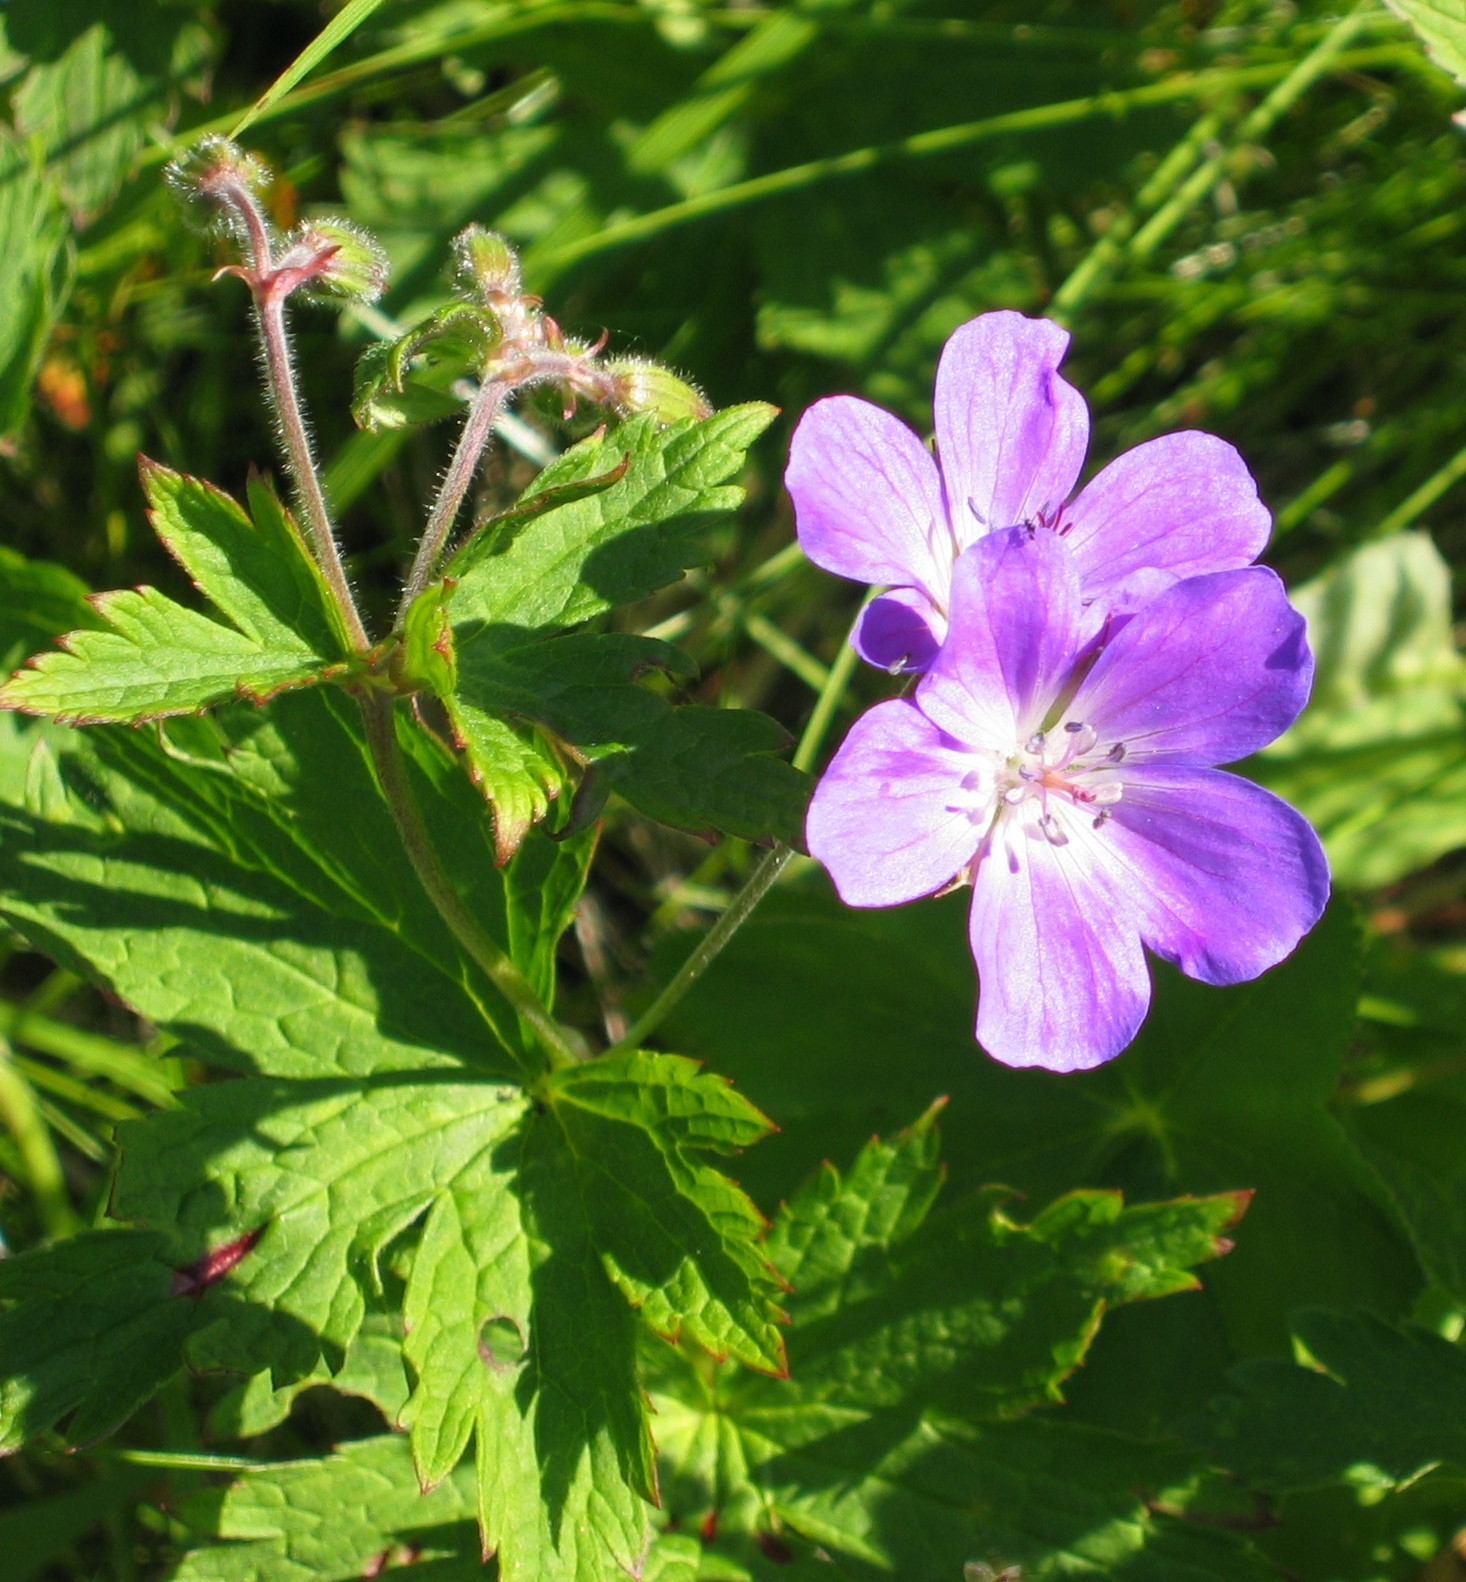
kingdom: Plantae
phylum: Tracheophyta
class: Magnoliopsida
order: Geraniales
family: Geraniaceae
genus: Geranium
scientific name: Geranium sylvaticum
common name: Wood crane's-bill
